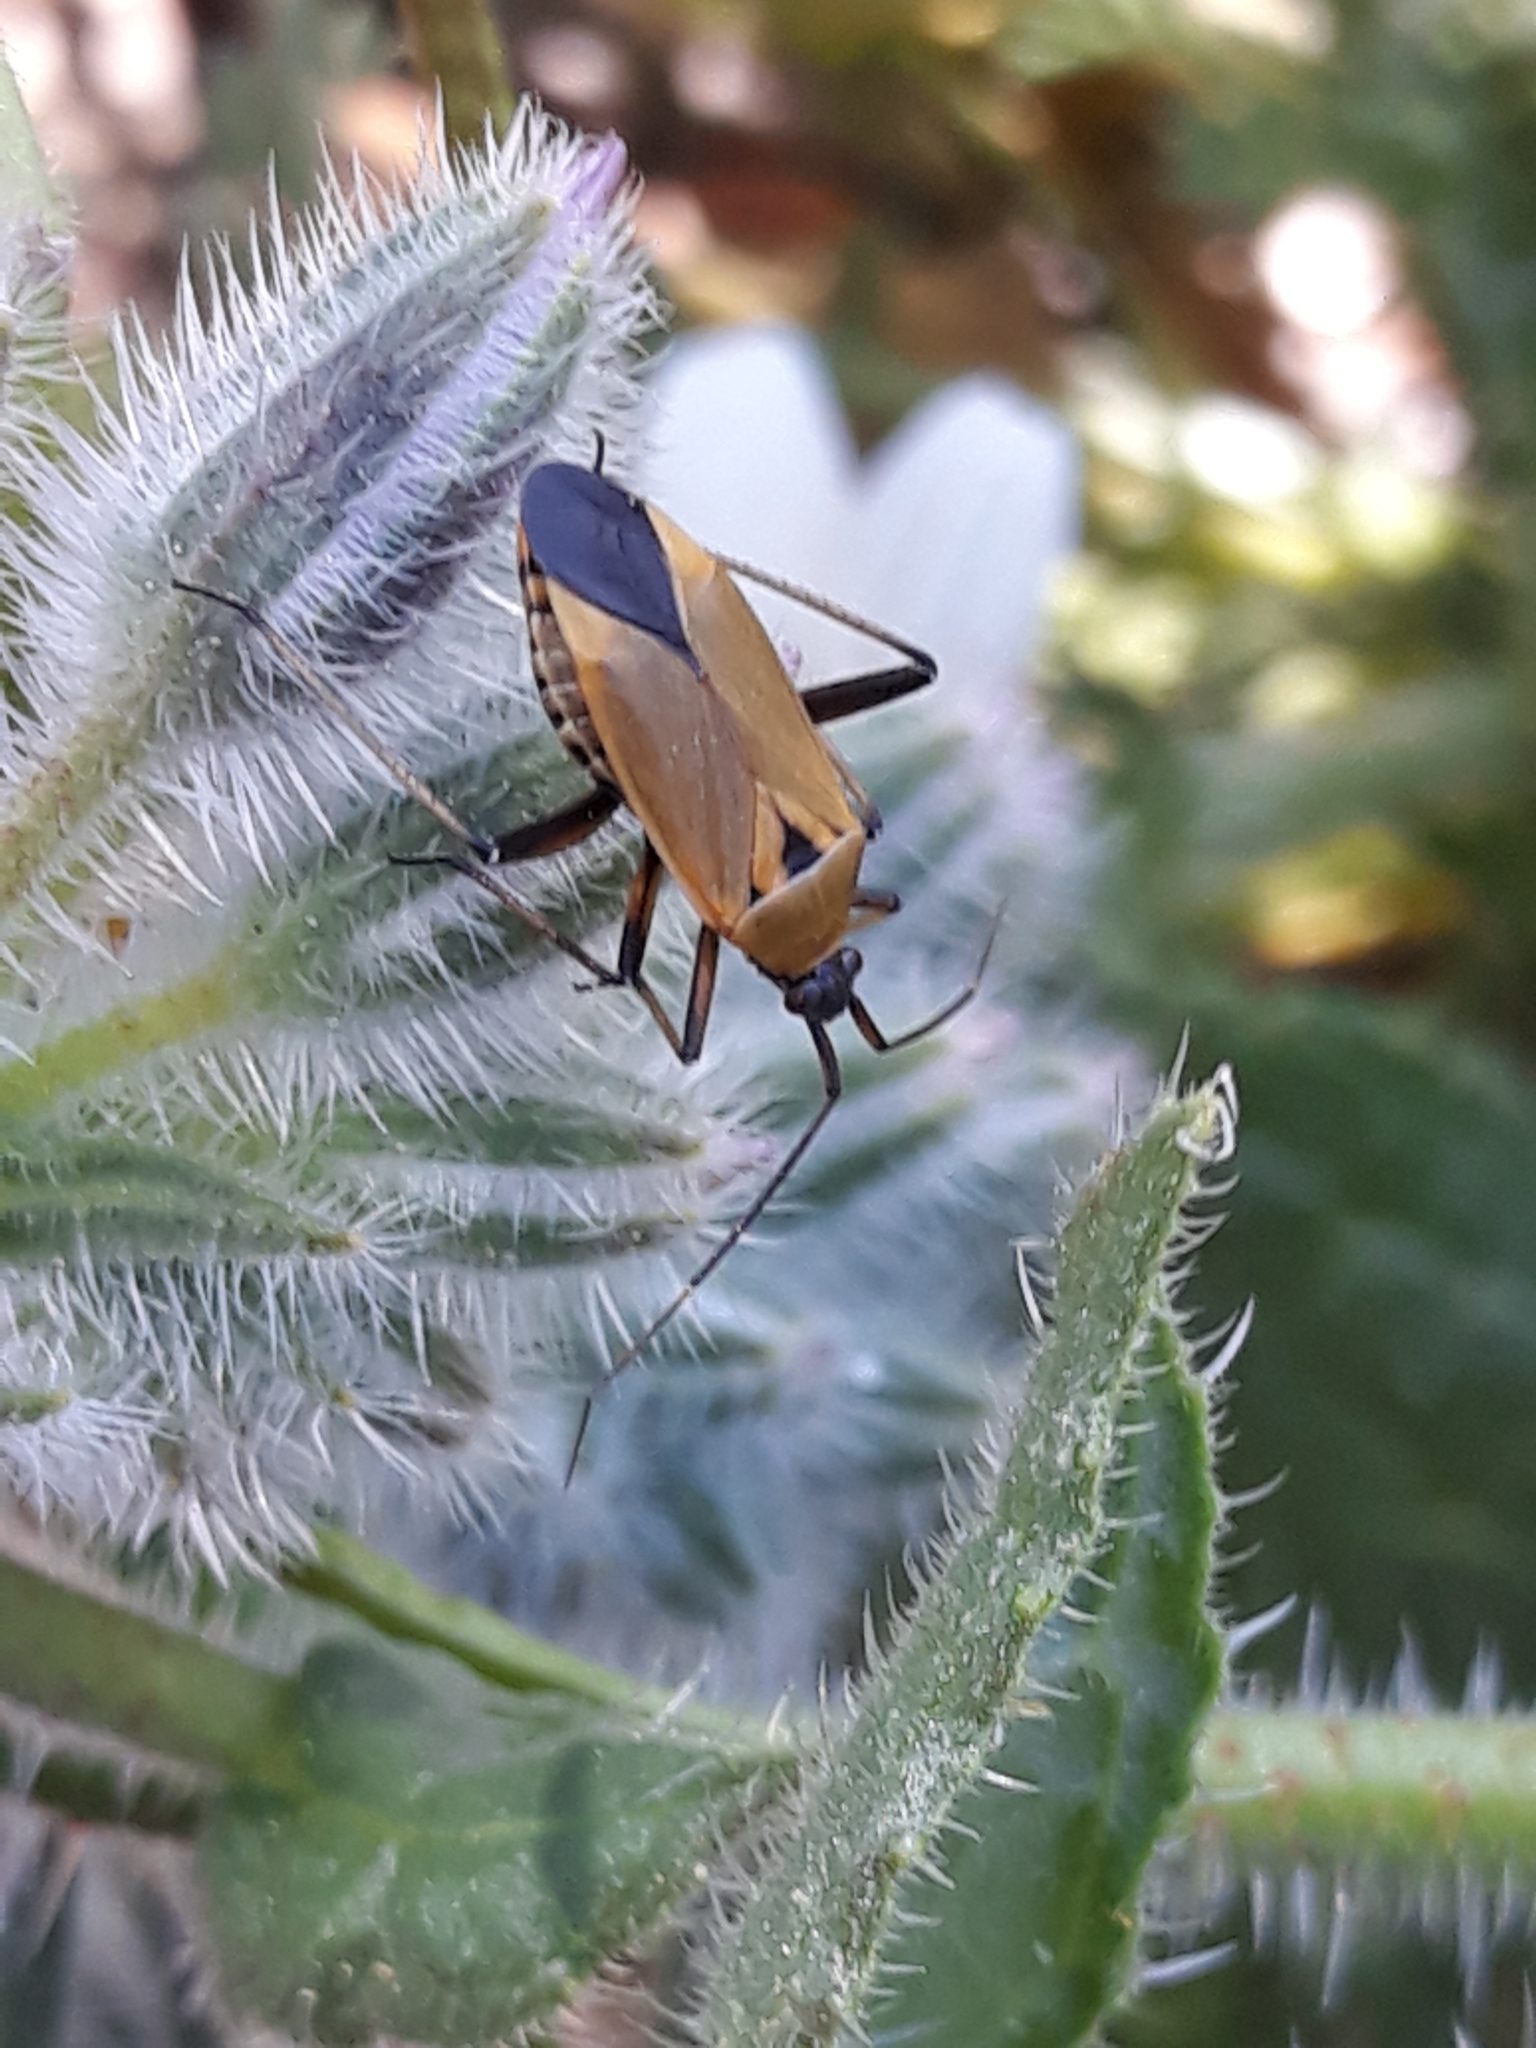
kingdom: Animalia
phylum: Arthropoda
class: Insecta
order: Hemiptera
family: Miridae
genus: Calocoris
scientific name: Calocoris nemoralis
